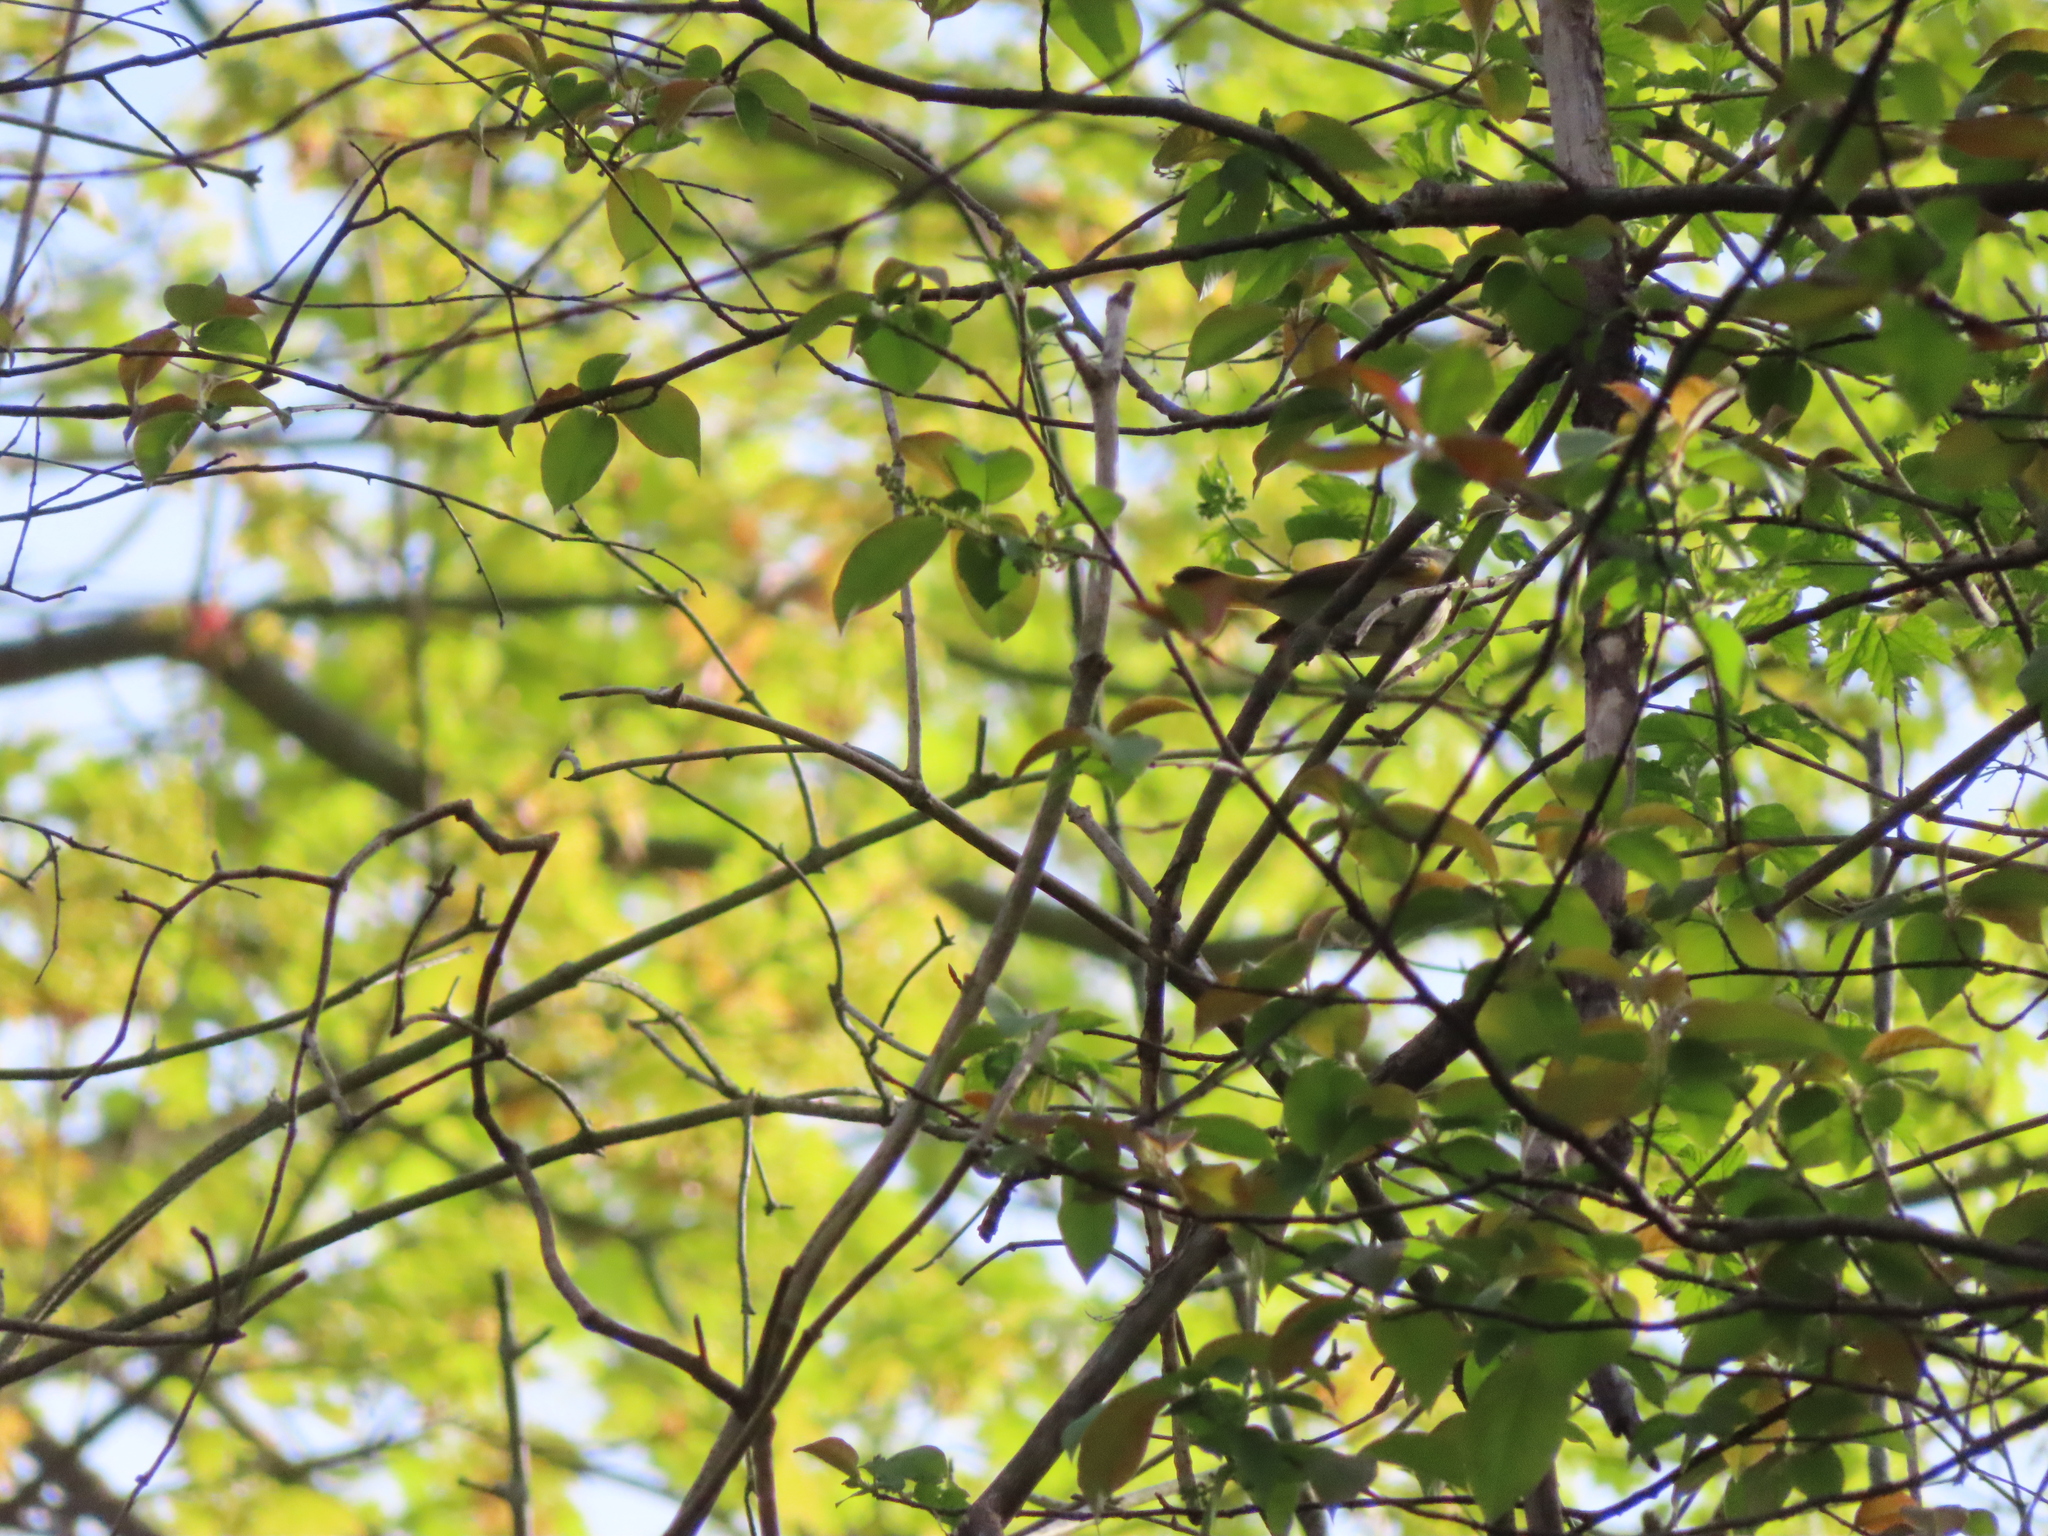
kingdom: Animalia
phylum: Chordata
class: Aves
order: Passeriformes
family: Parulidae
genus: Setophaga
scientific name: Setophaga ruticilla
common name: American redstart
